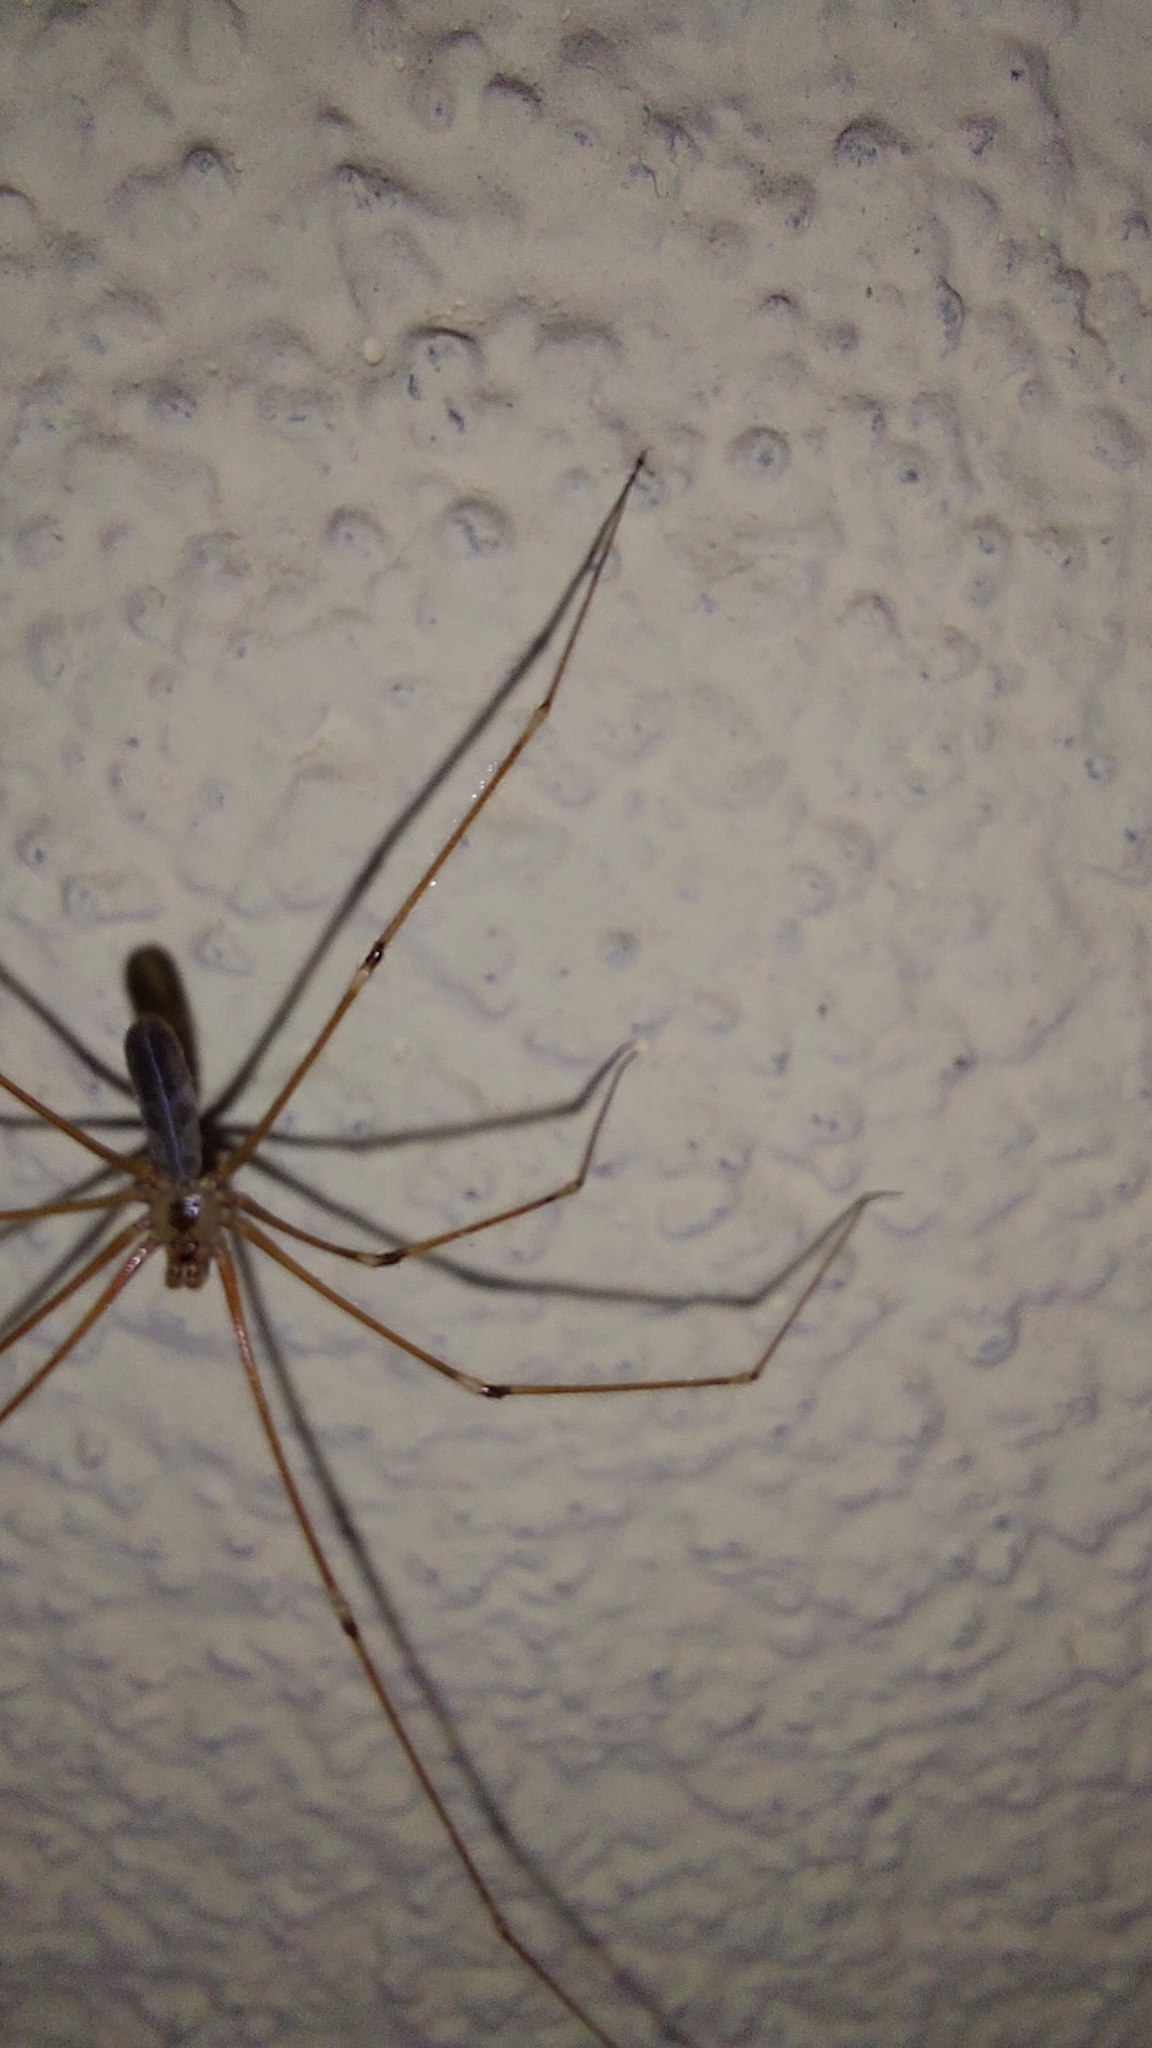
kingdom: Animalia
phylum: Arthropoda
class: Arachnida
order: Araneae
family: Pholcidae
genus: Pholcus
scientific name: Pholcus phalangioides
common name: Longbodied cellar spider
